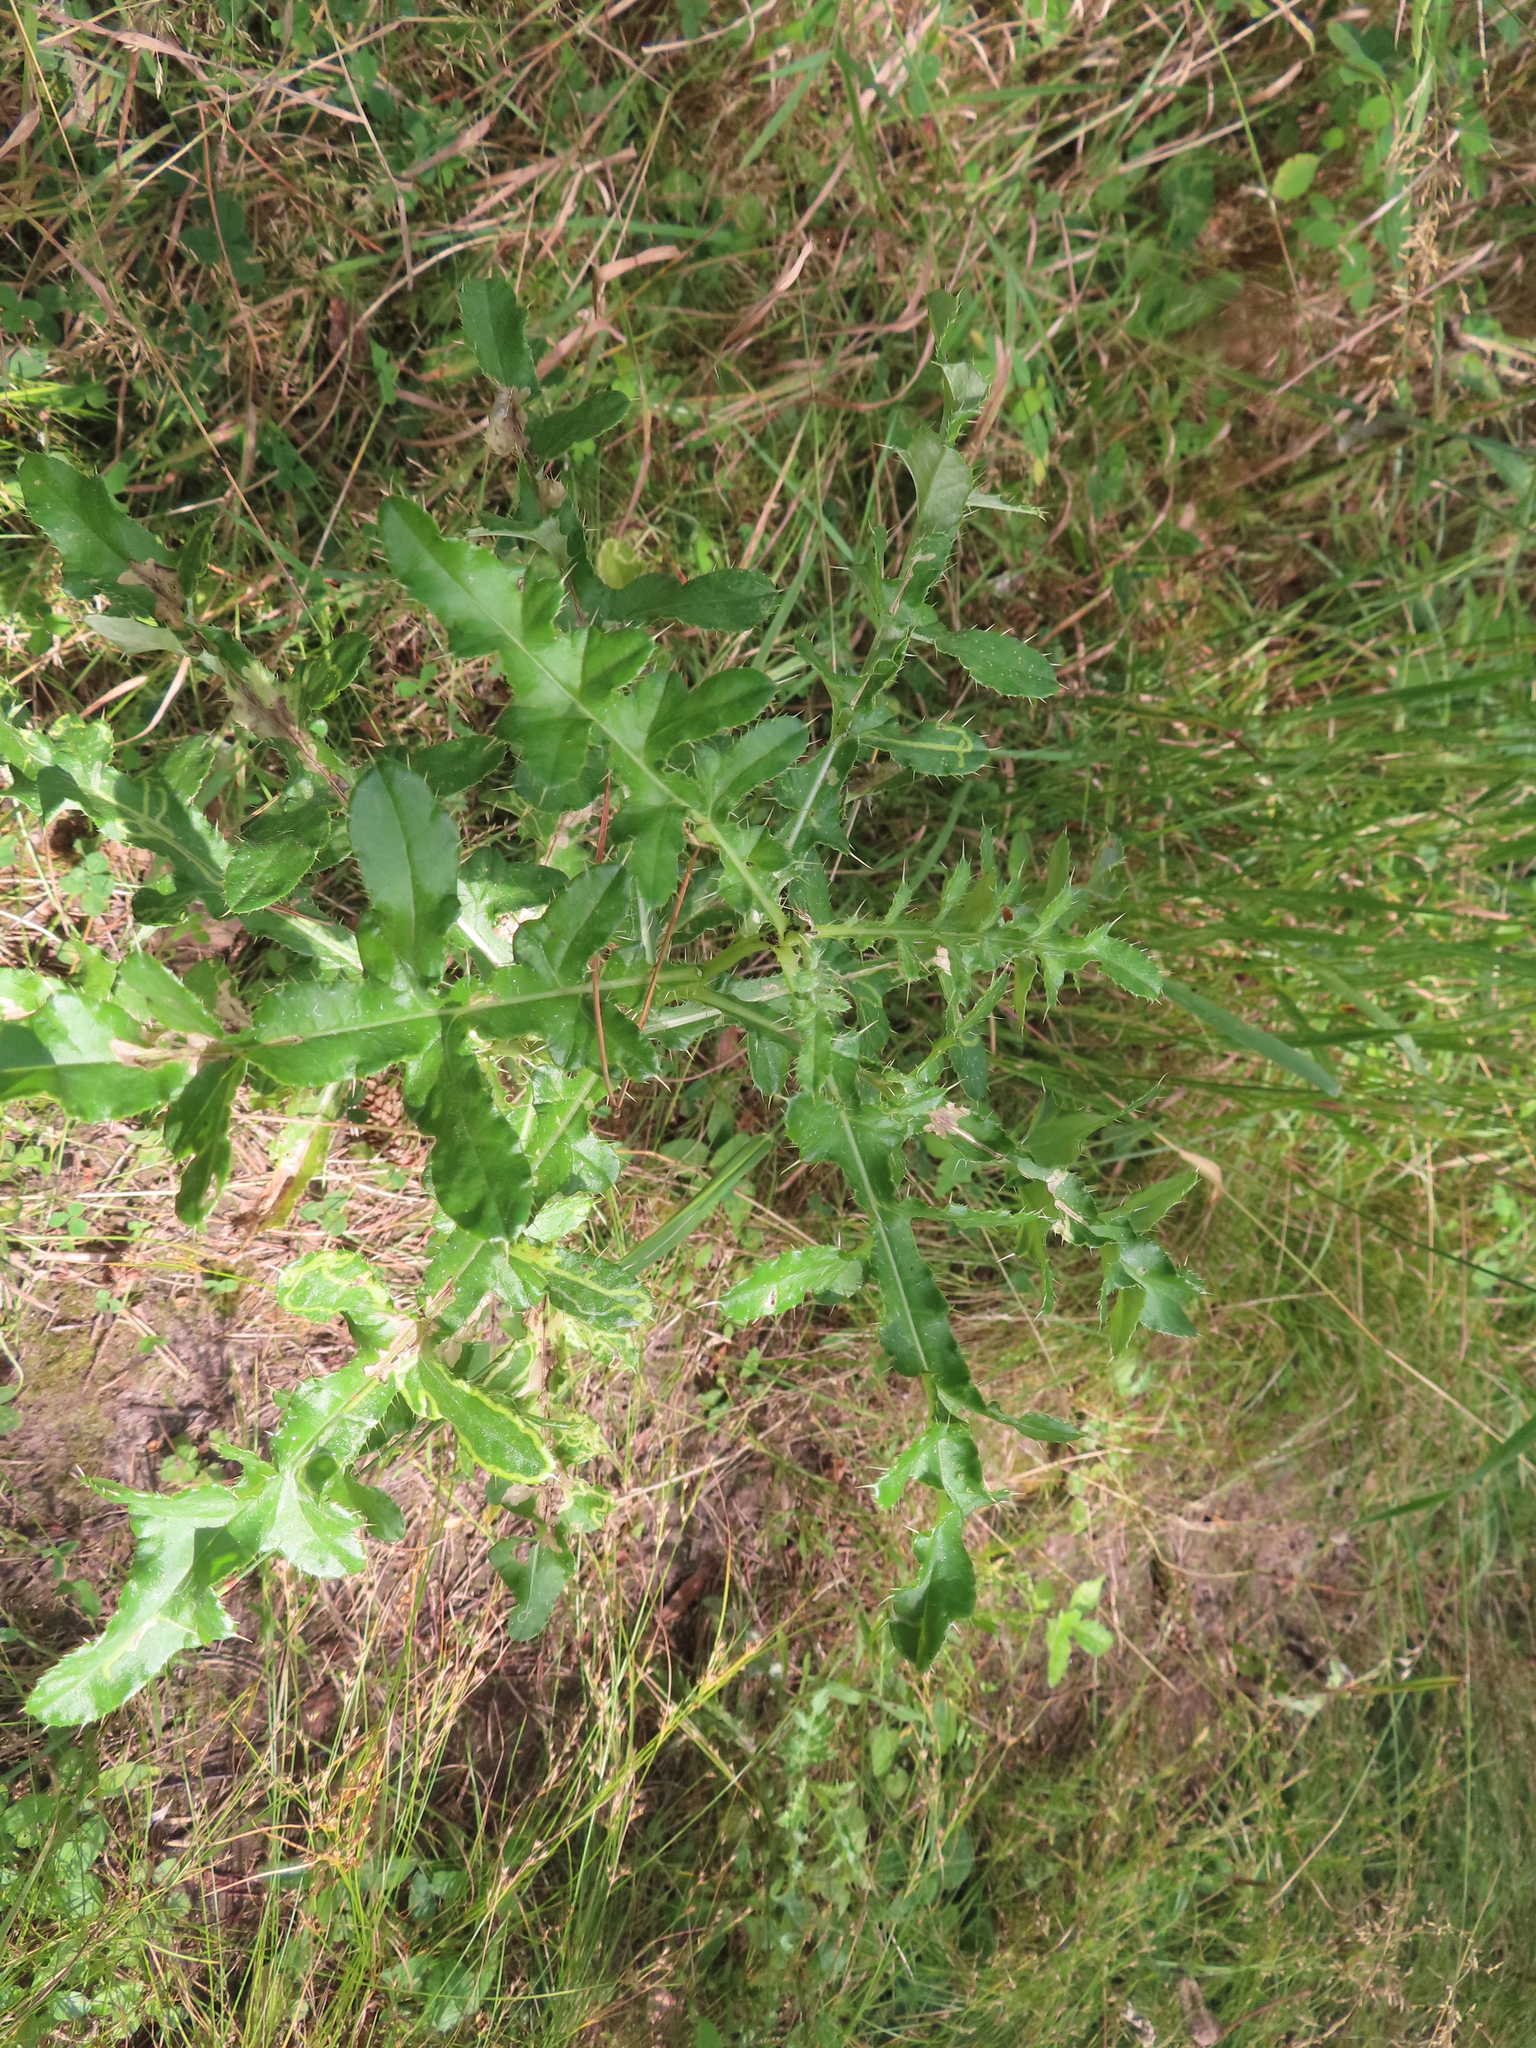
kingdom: Plantae
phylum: Tracheophyta
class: Magnoliopsida
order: Asterales
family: Asteraceae
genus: Cirsium
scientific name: Cirsium arvense
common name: Creeping thistle
